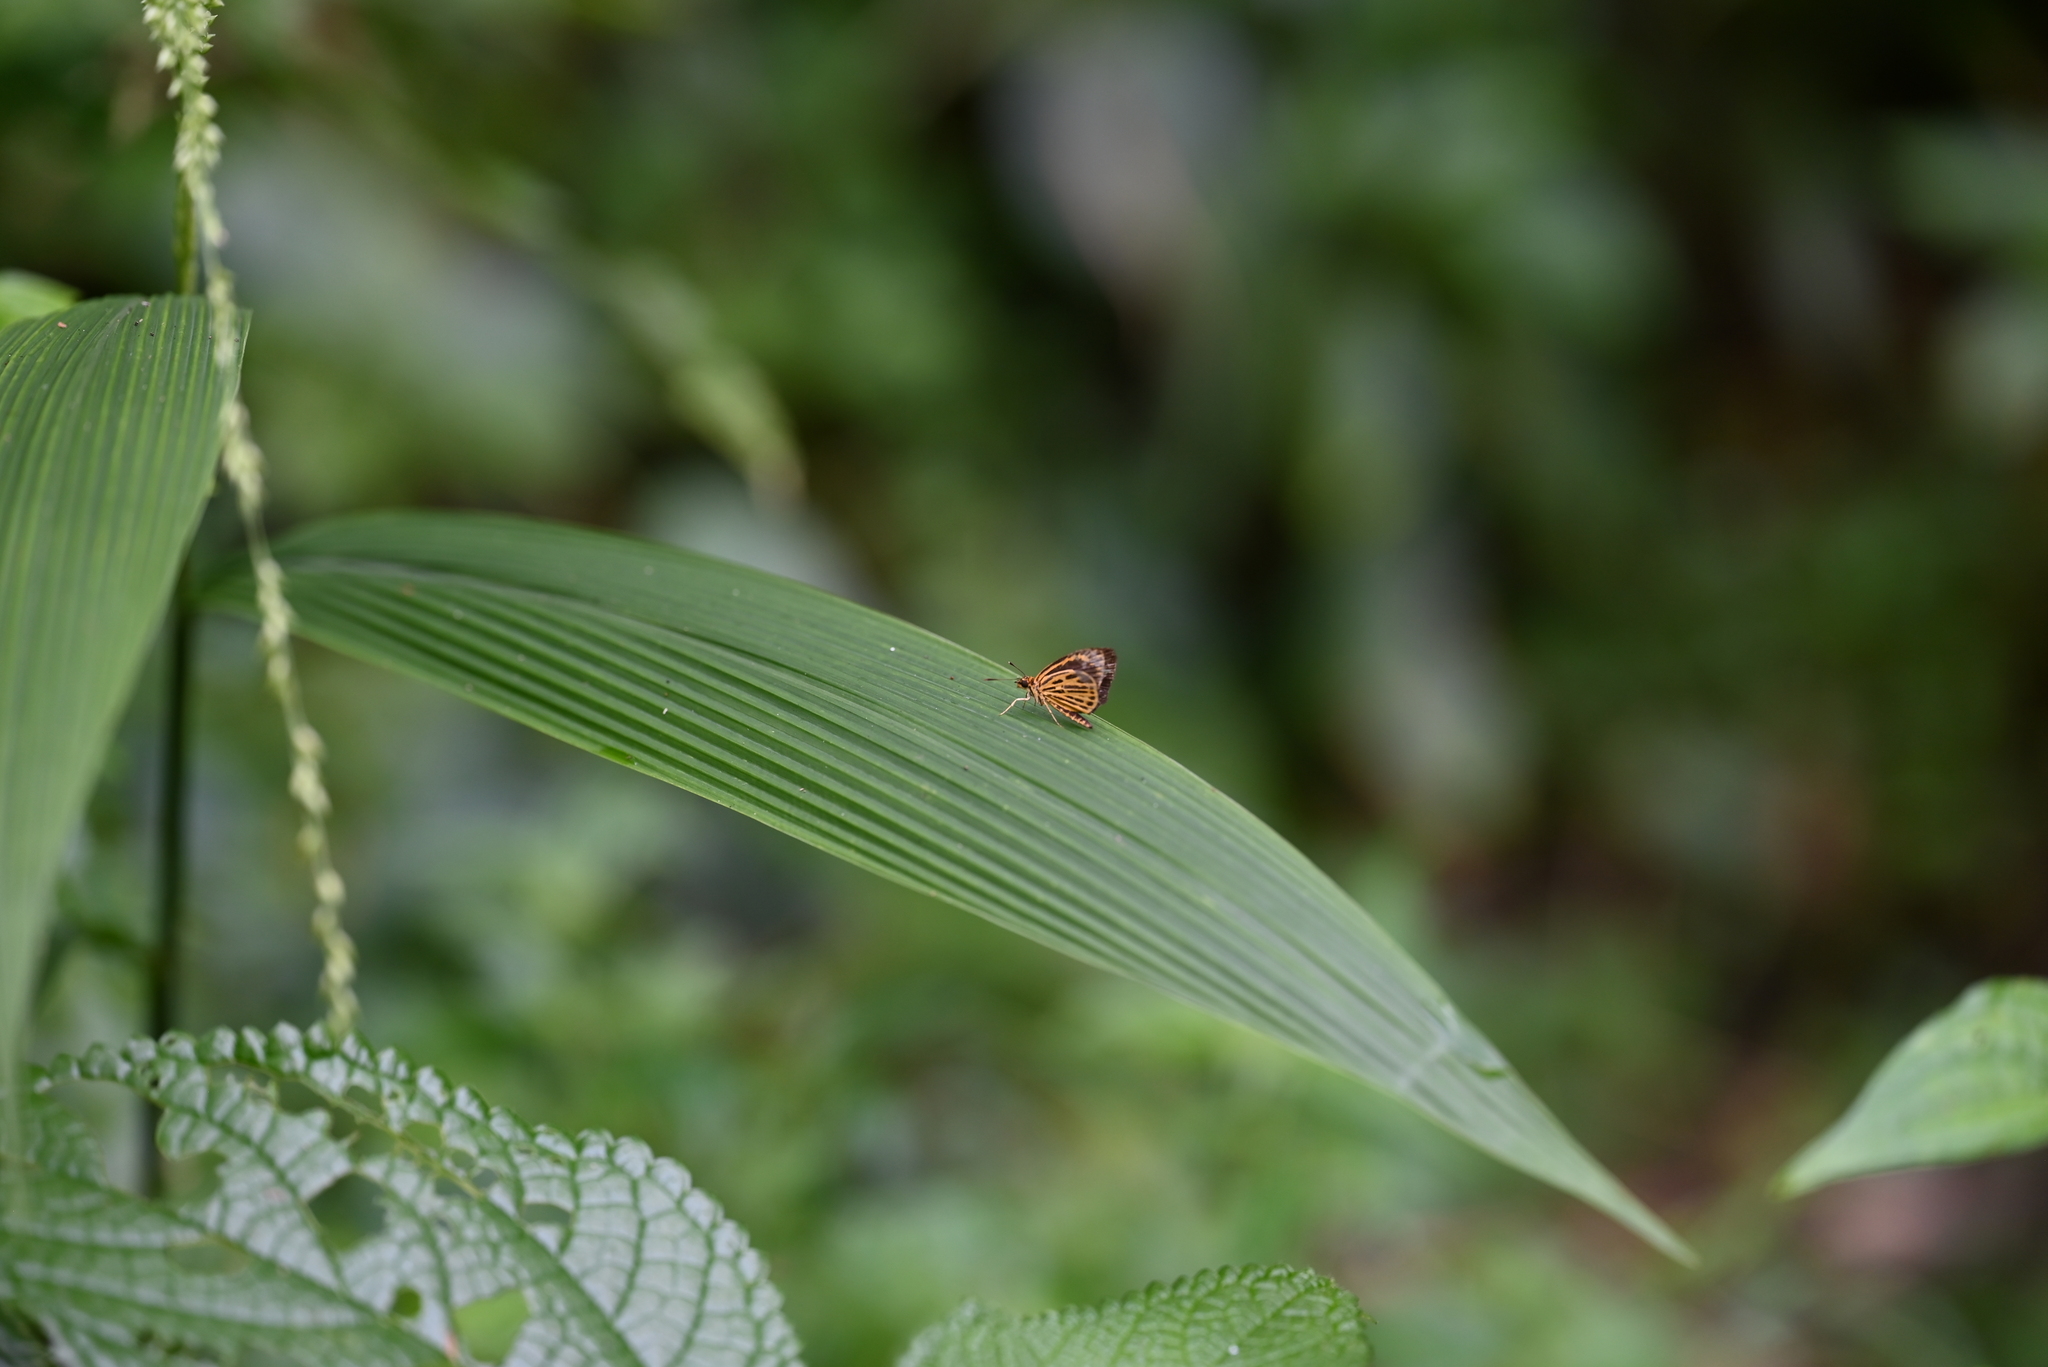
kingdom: Animalia
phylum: Arthropoda
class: Insecta
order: Lepidoptera
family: Hesperiidae
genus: Ampittia
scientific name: Ampittia subvittatus
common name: Tiger hopper
